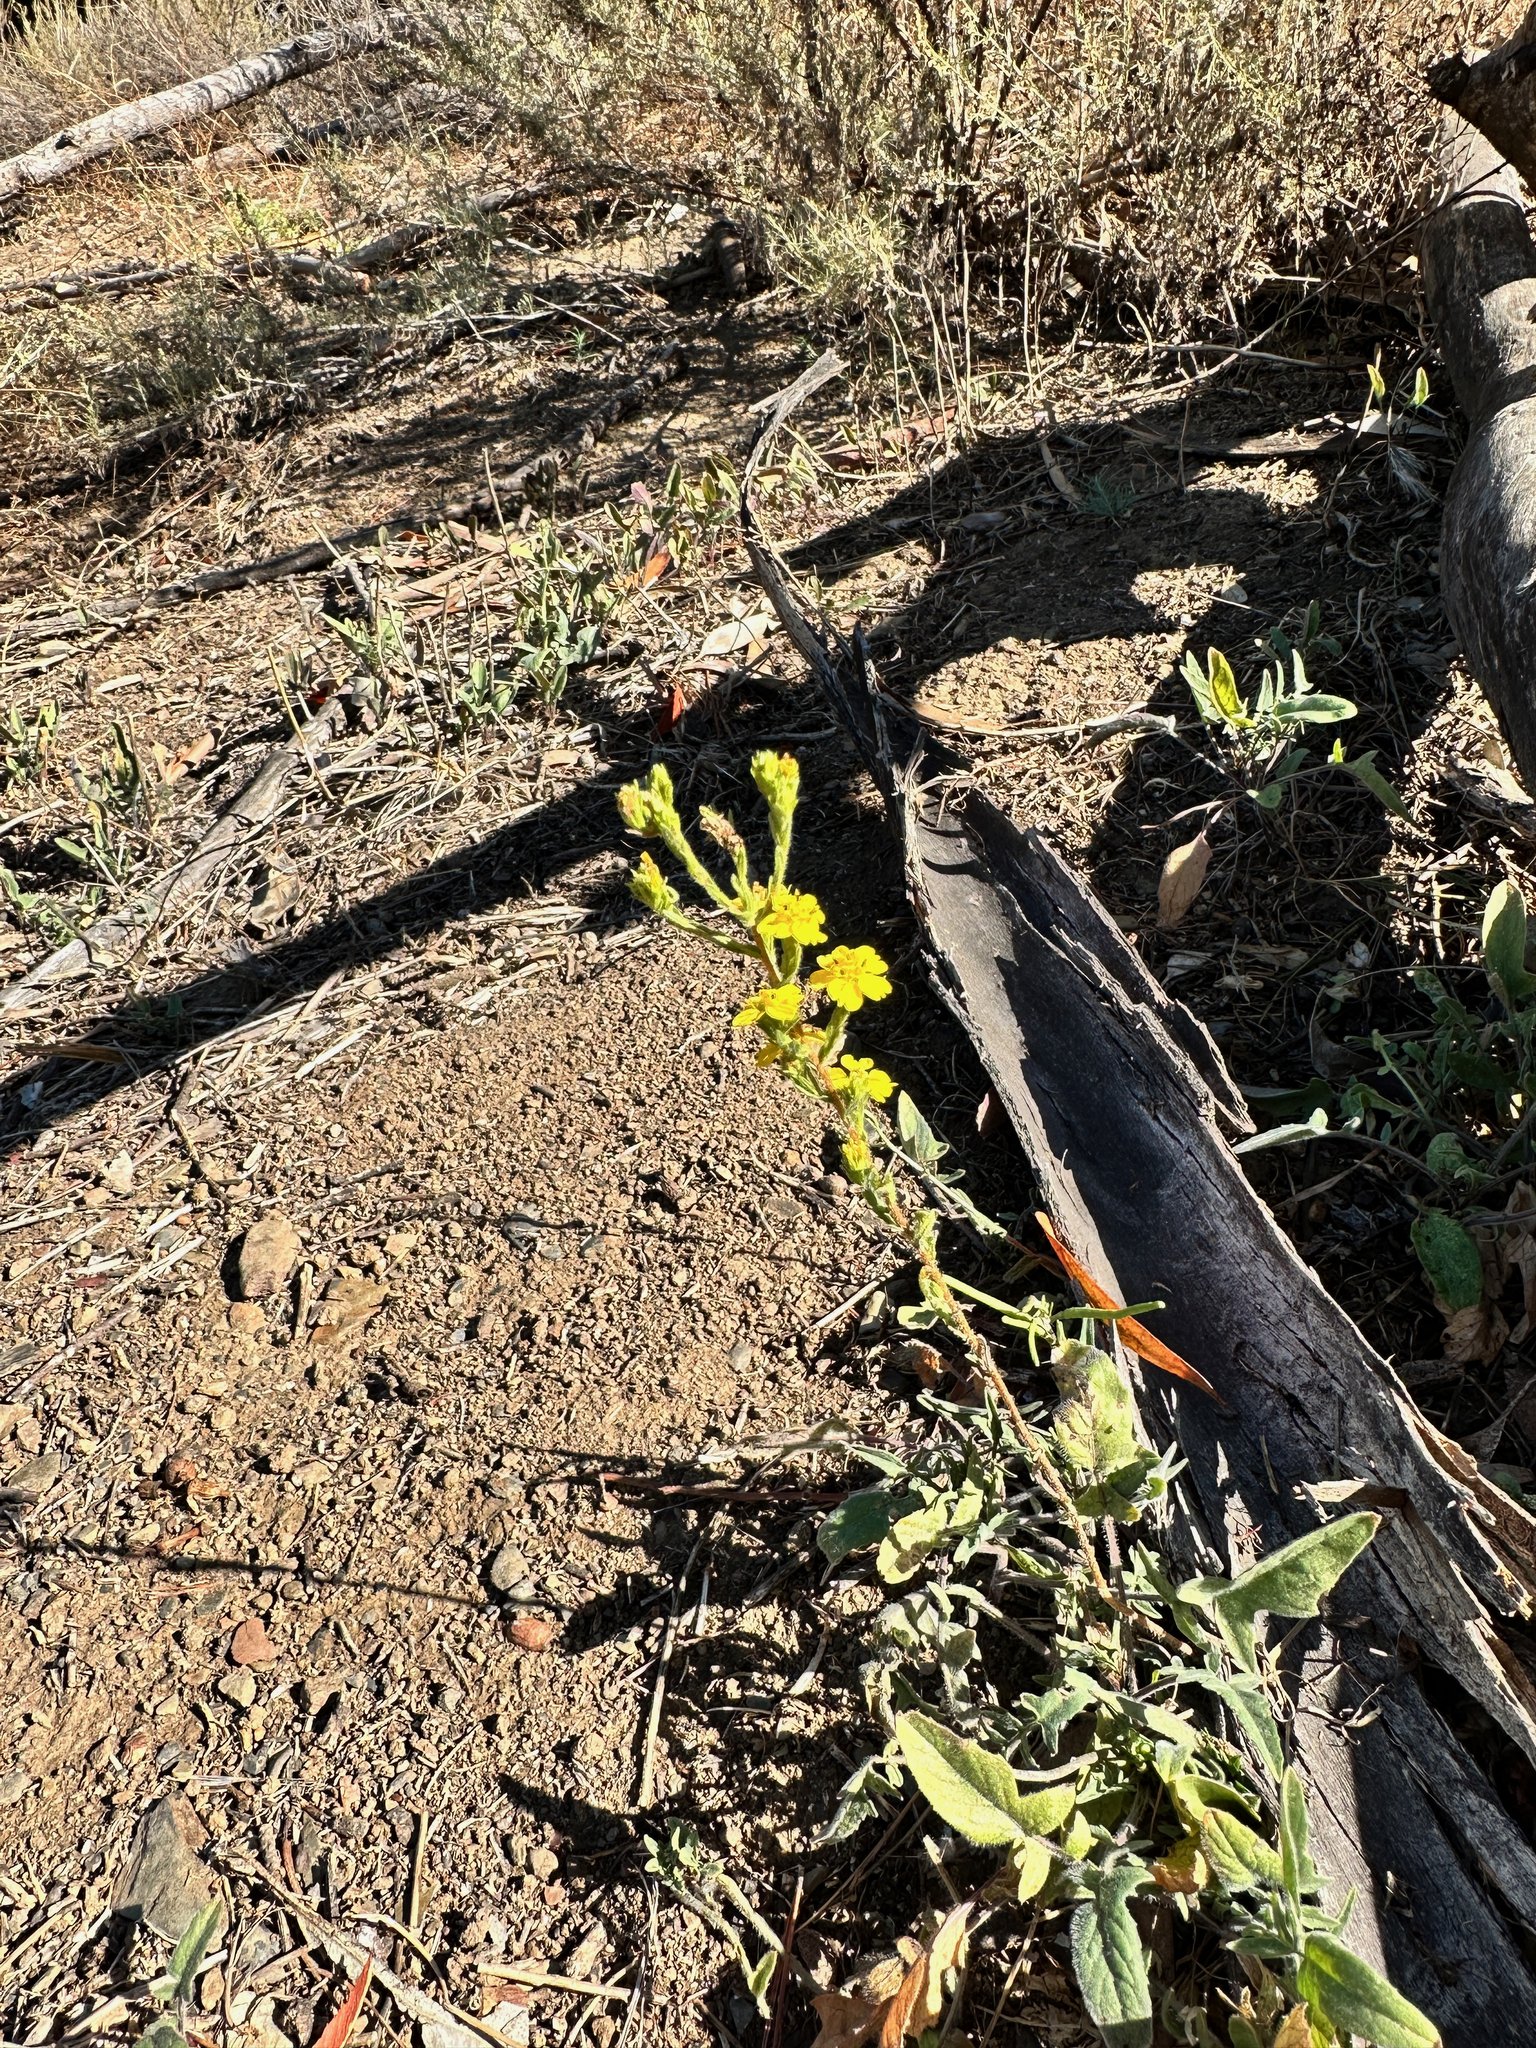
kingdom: Plantae
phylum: Tracheophyta
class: Magnoliopsida
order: Asterales
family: Asteraceae
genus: Deinandra
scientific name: Deinandra fasciculata
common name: Clustered tarweed
